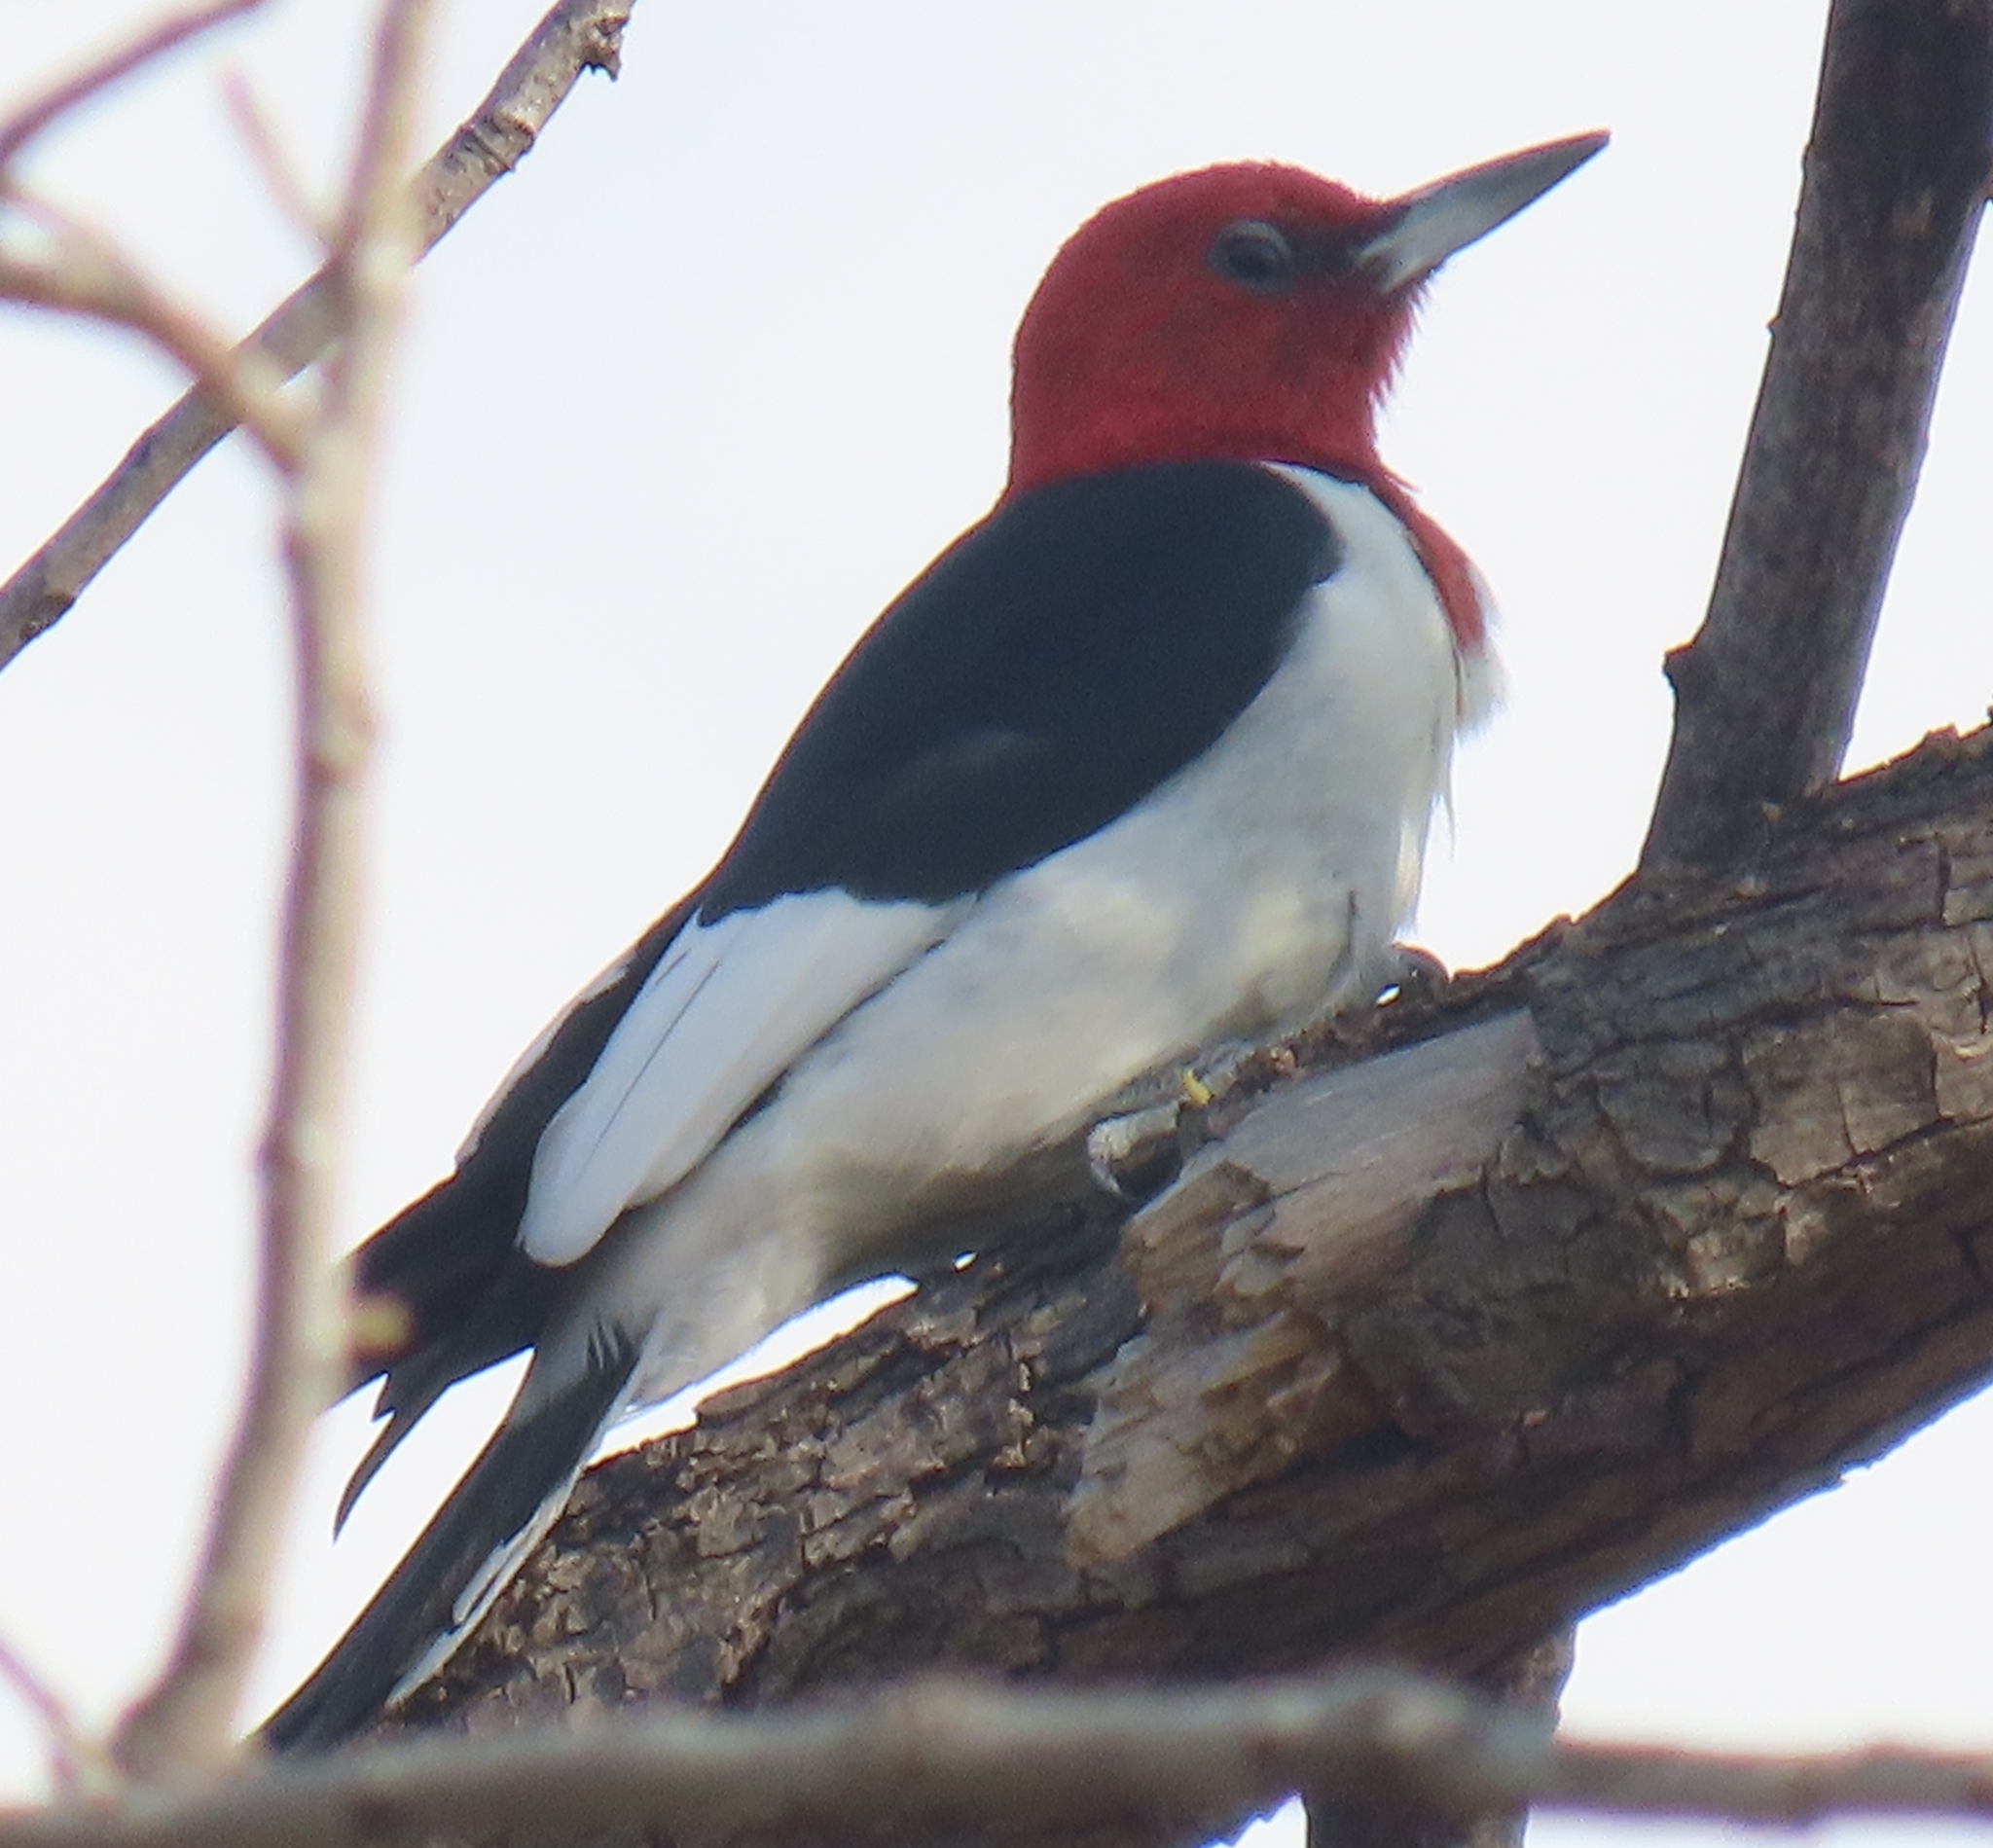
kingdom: Animalia
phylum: Chordata
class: Aves
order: Piciformes
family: Picidae
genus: Melanerpes
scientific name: Melanerpes erythrocephalus
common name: Red-headed woodpecker
